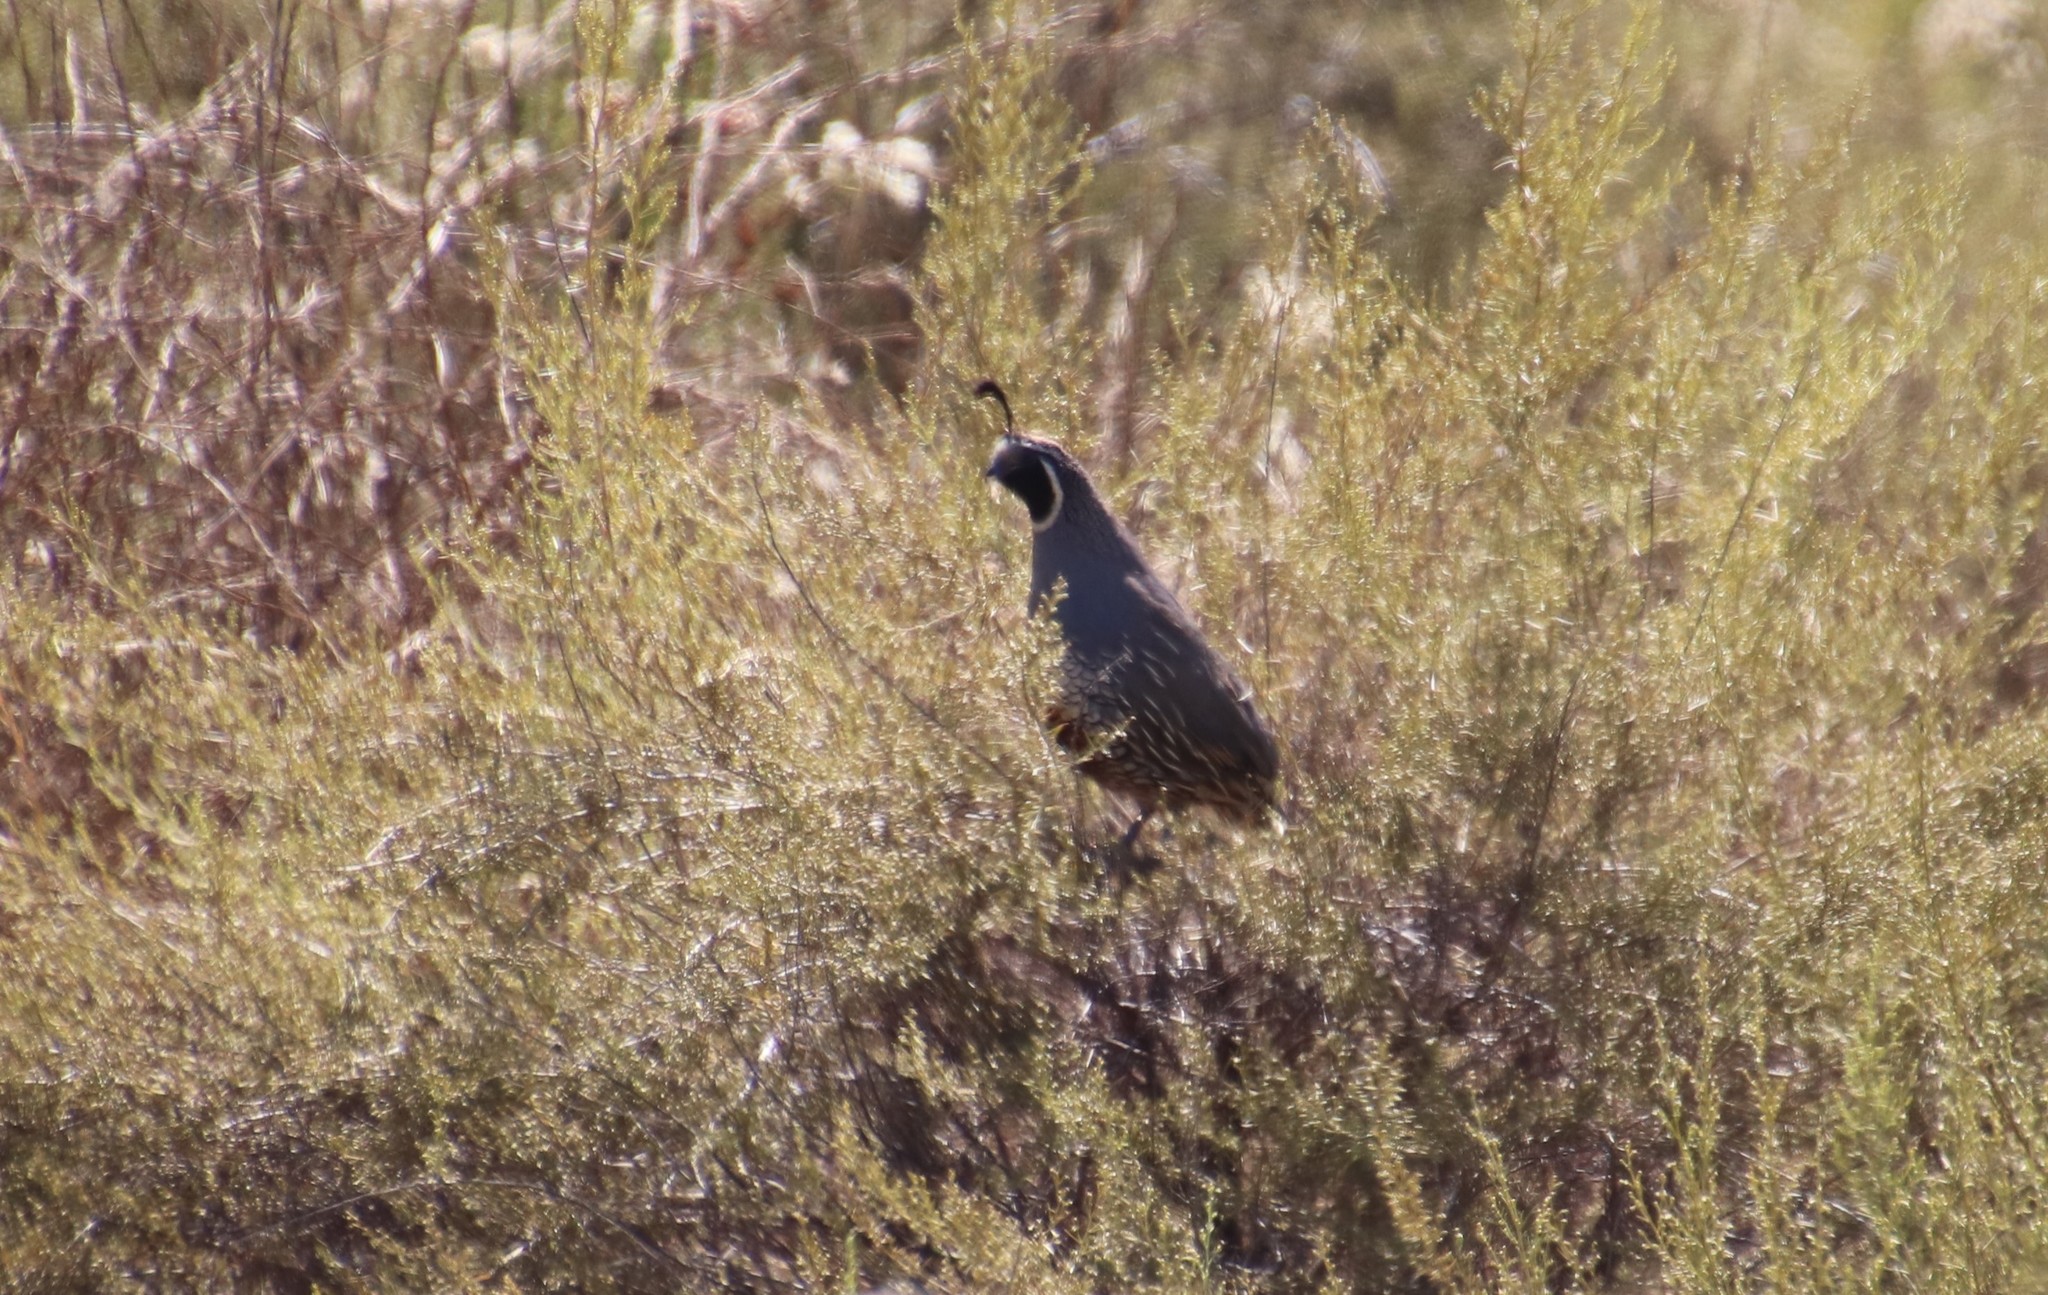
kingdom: Animalia
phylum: Chordata
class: Aves
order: Galliformes
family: Odontophoridae
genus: Callipepla
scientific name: Callipepla californica
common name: California quail
